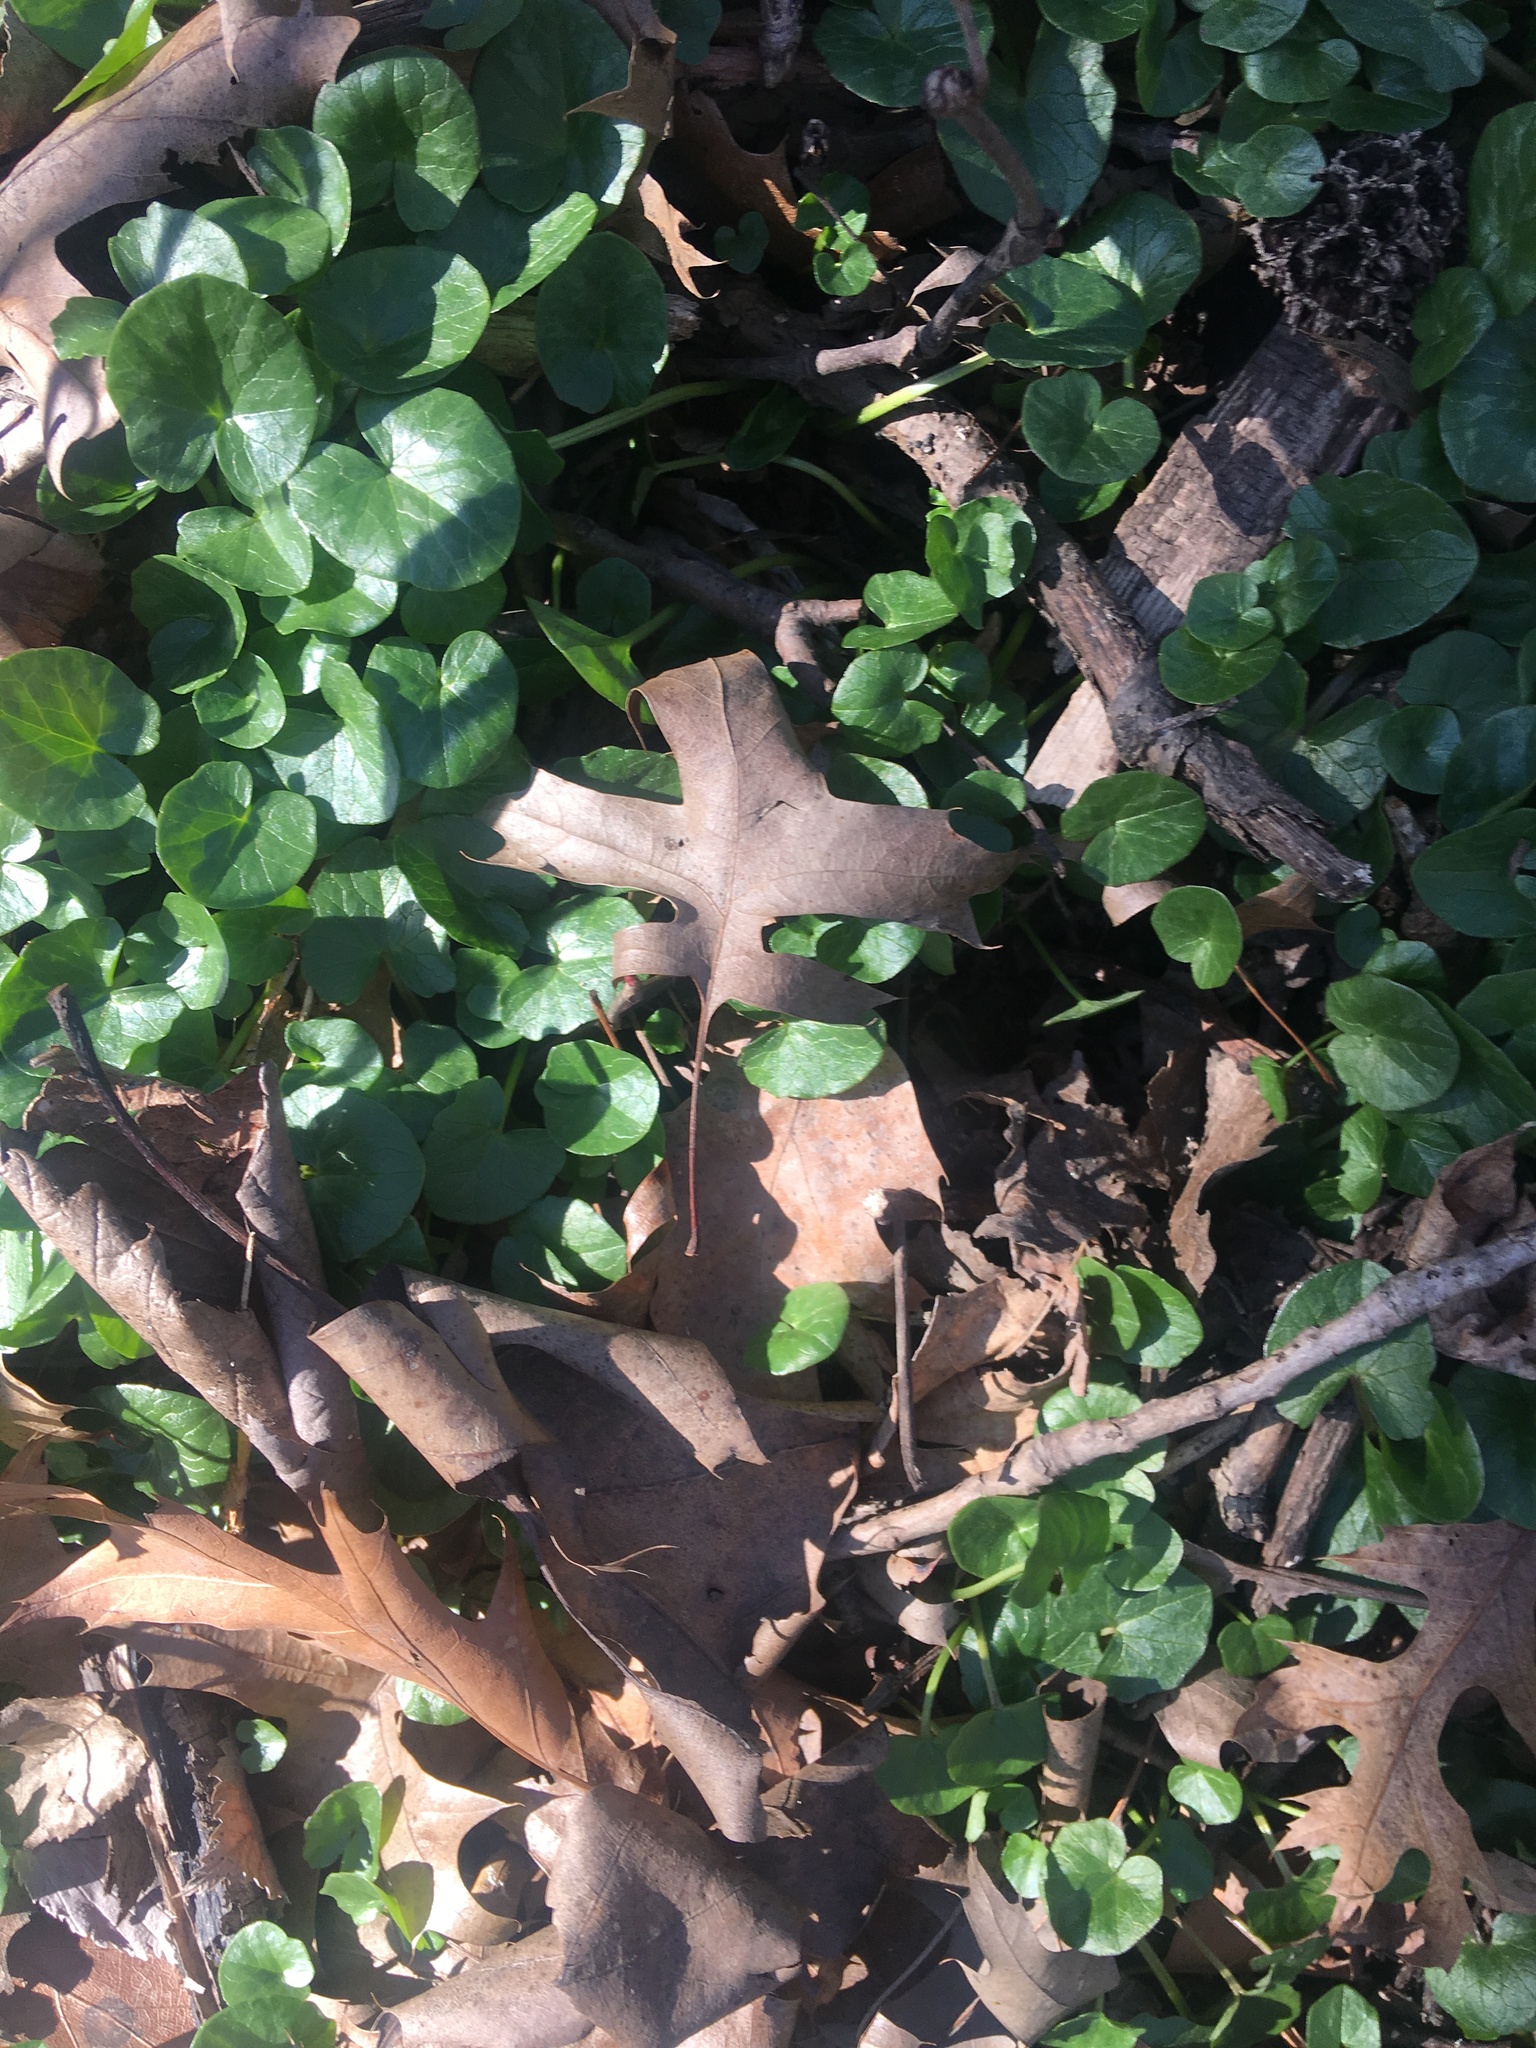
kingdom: Plantae
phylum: Tracheophyta
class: Magnoliopsida
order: Ranunculales
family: Ranunculaceae
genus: Ficaria
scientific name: Ficaria verna
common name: Lesser celandine
